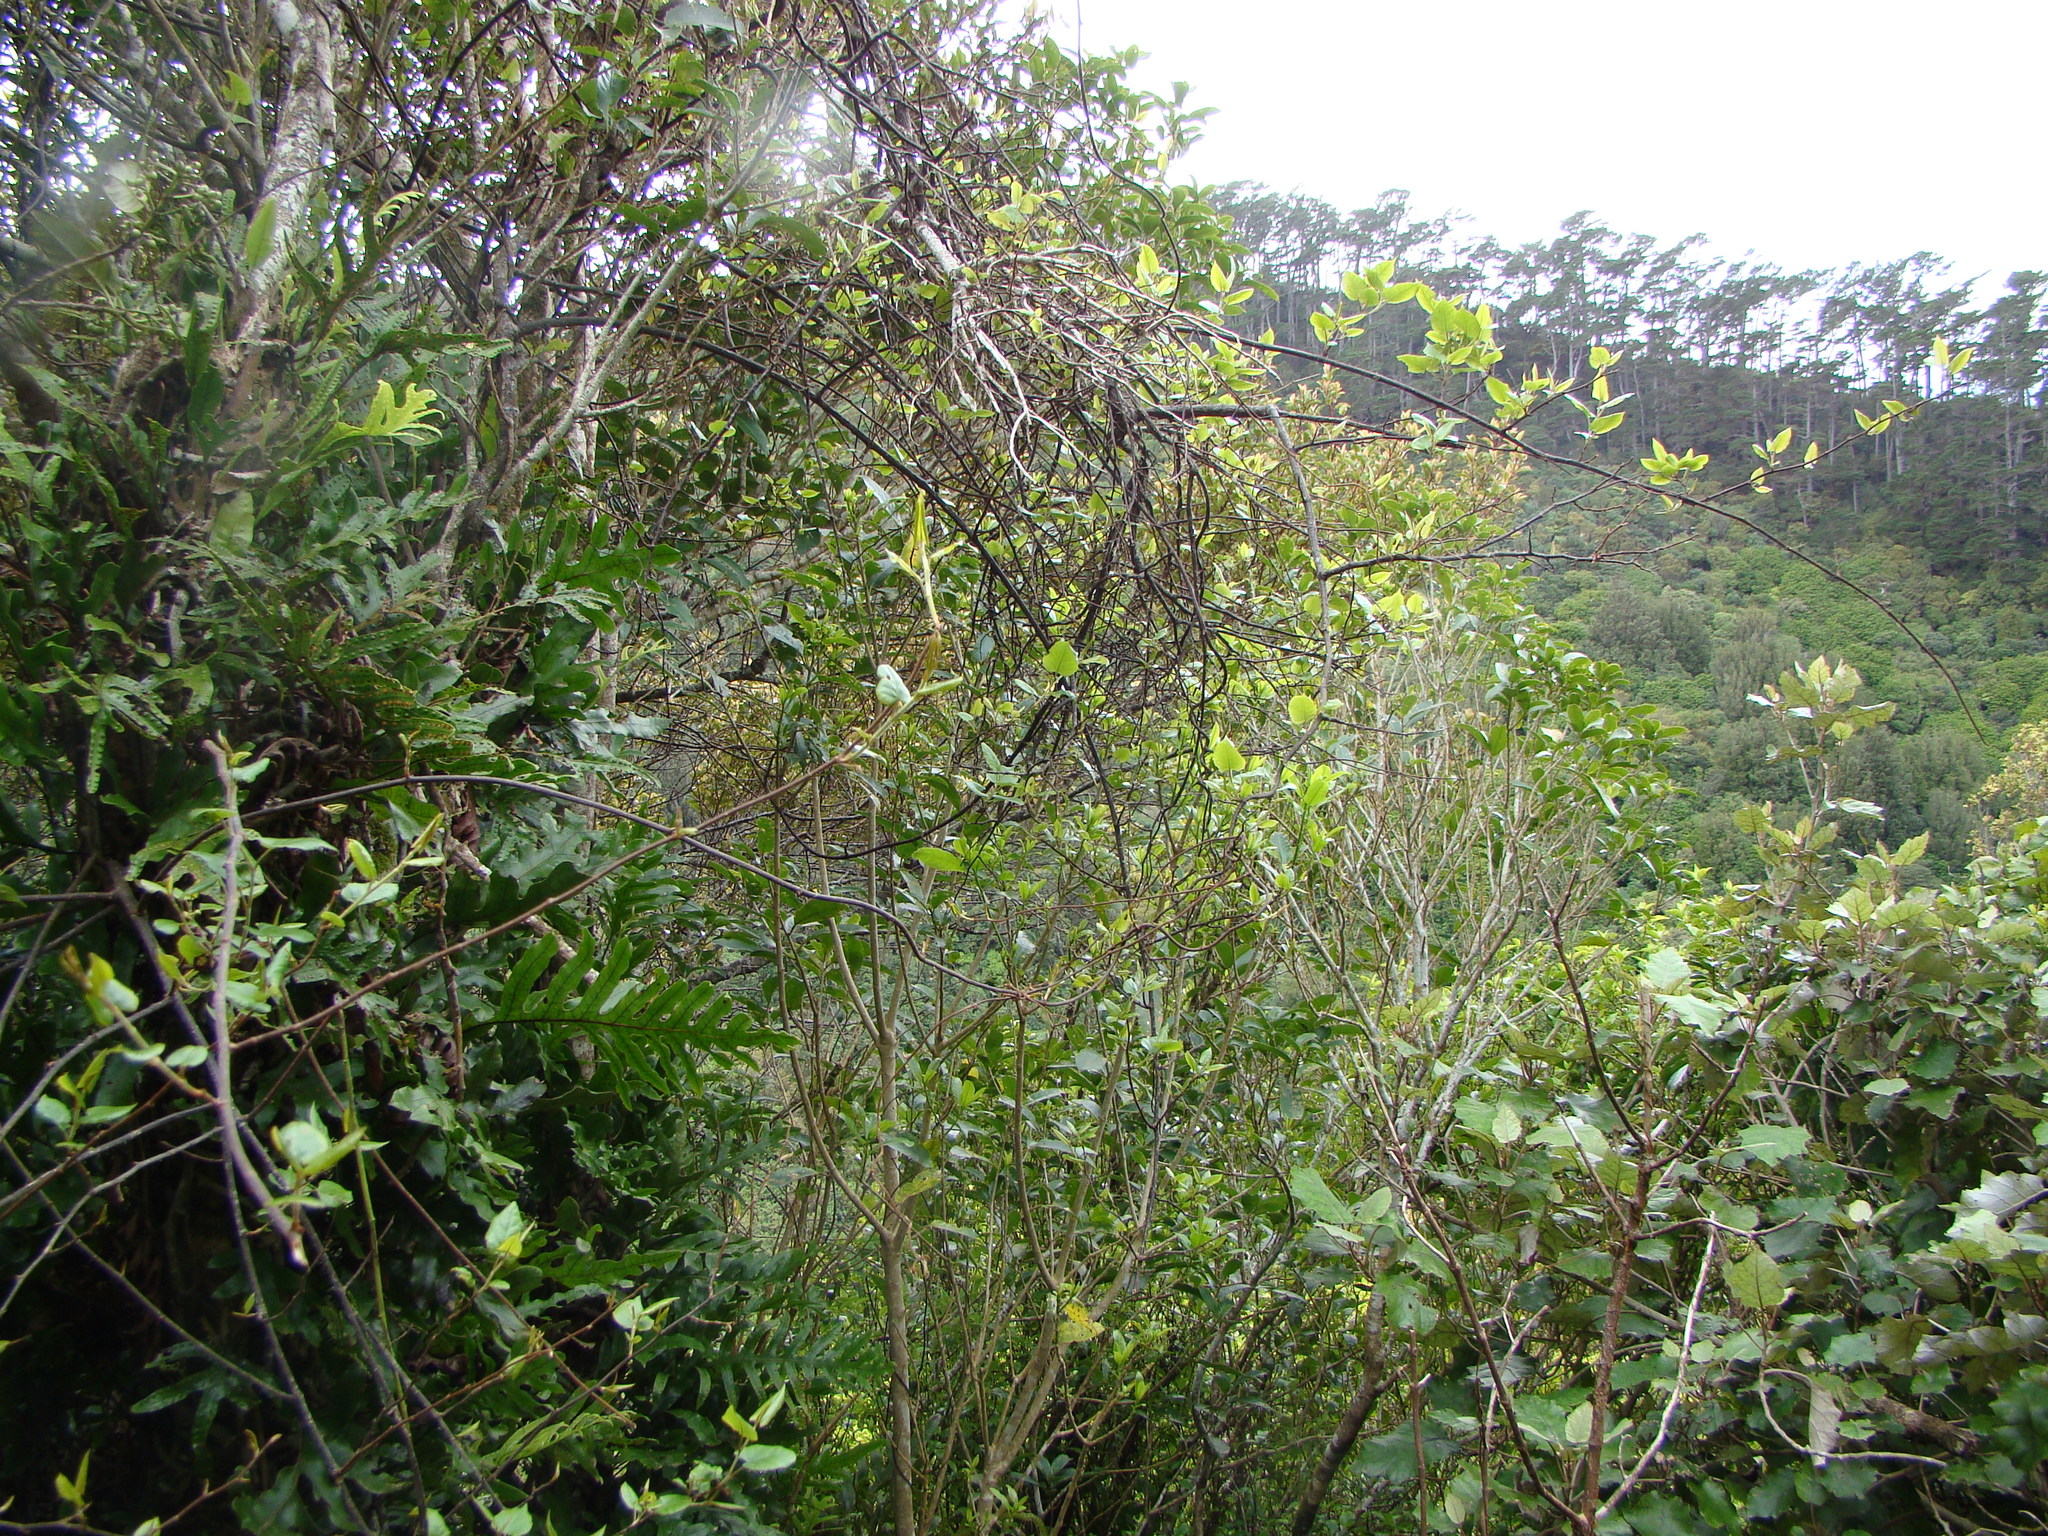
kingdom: Plantae
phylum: Tracheophyta
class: Magnoliopsida
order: Caryophyllales
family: Polygonaceae
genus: Muehlenbeckia
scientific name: Muehlenbeckia australis
